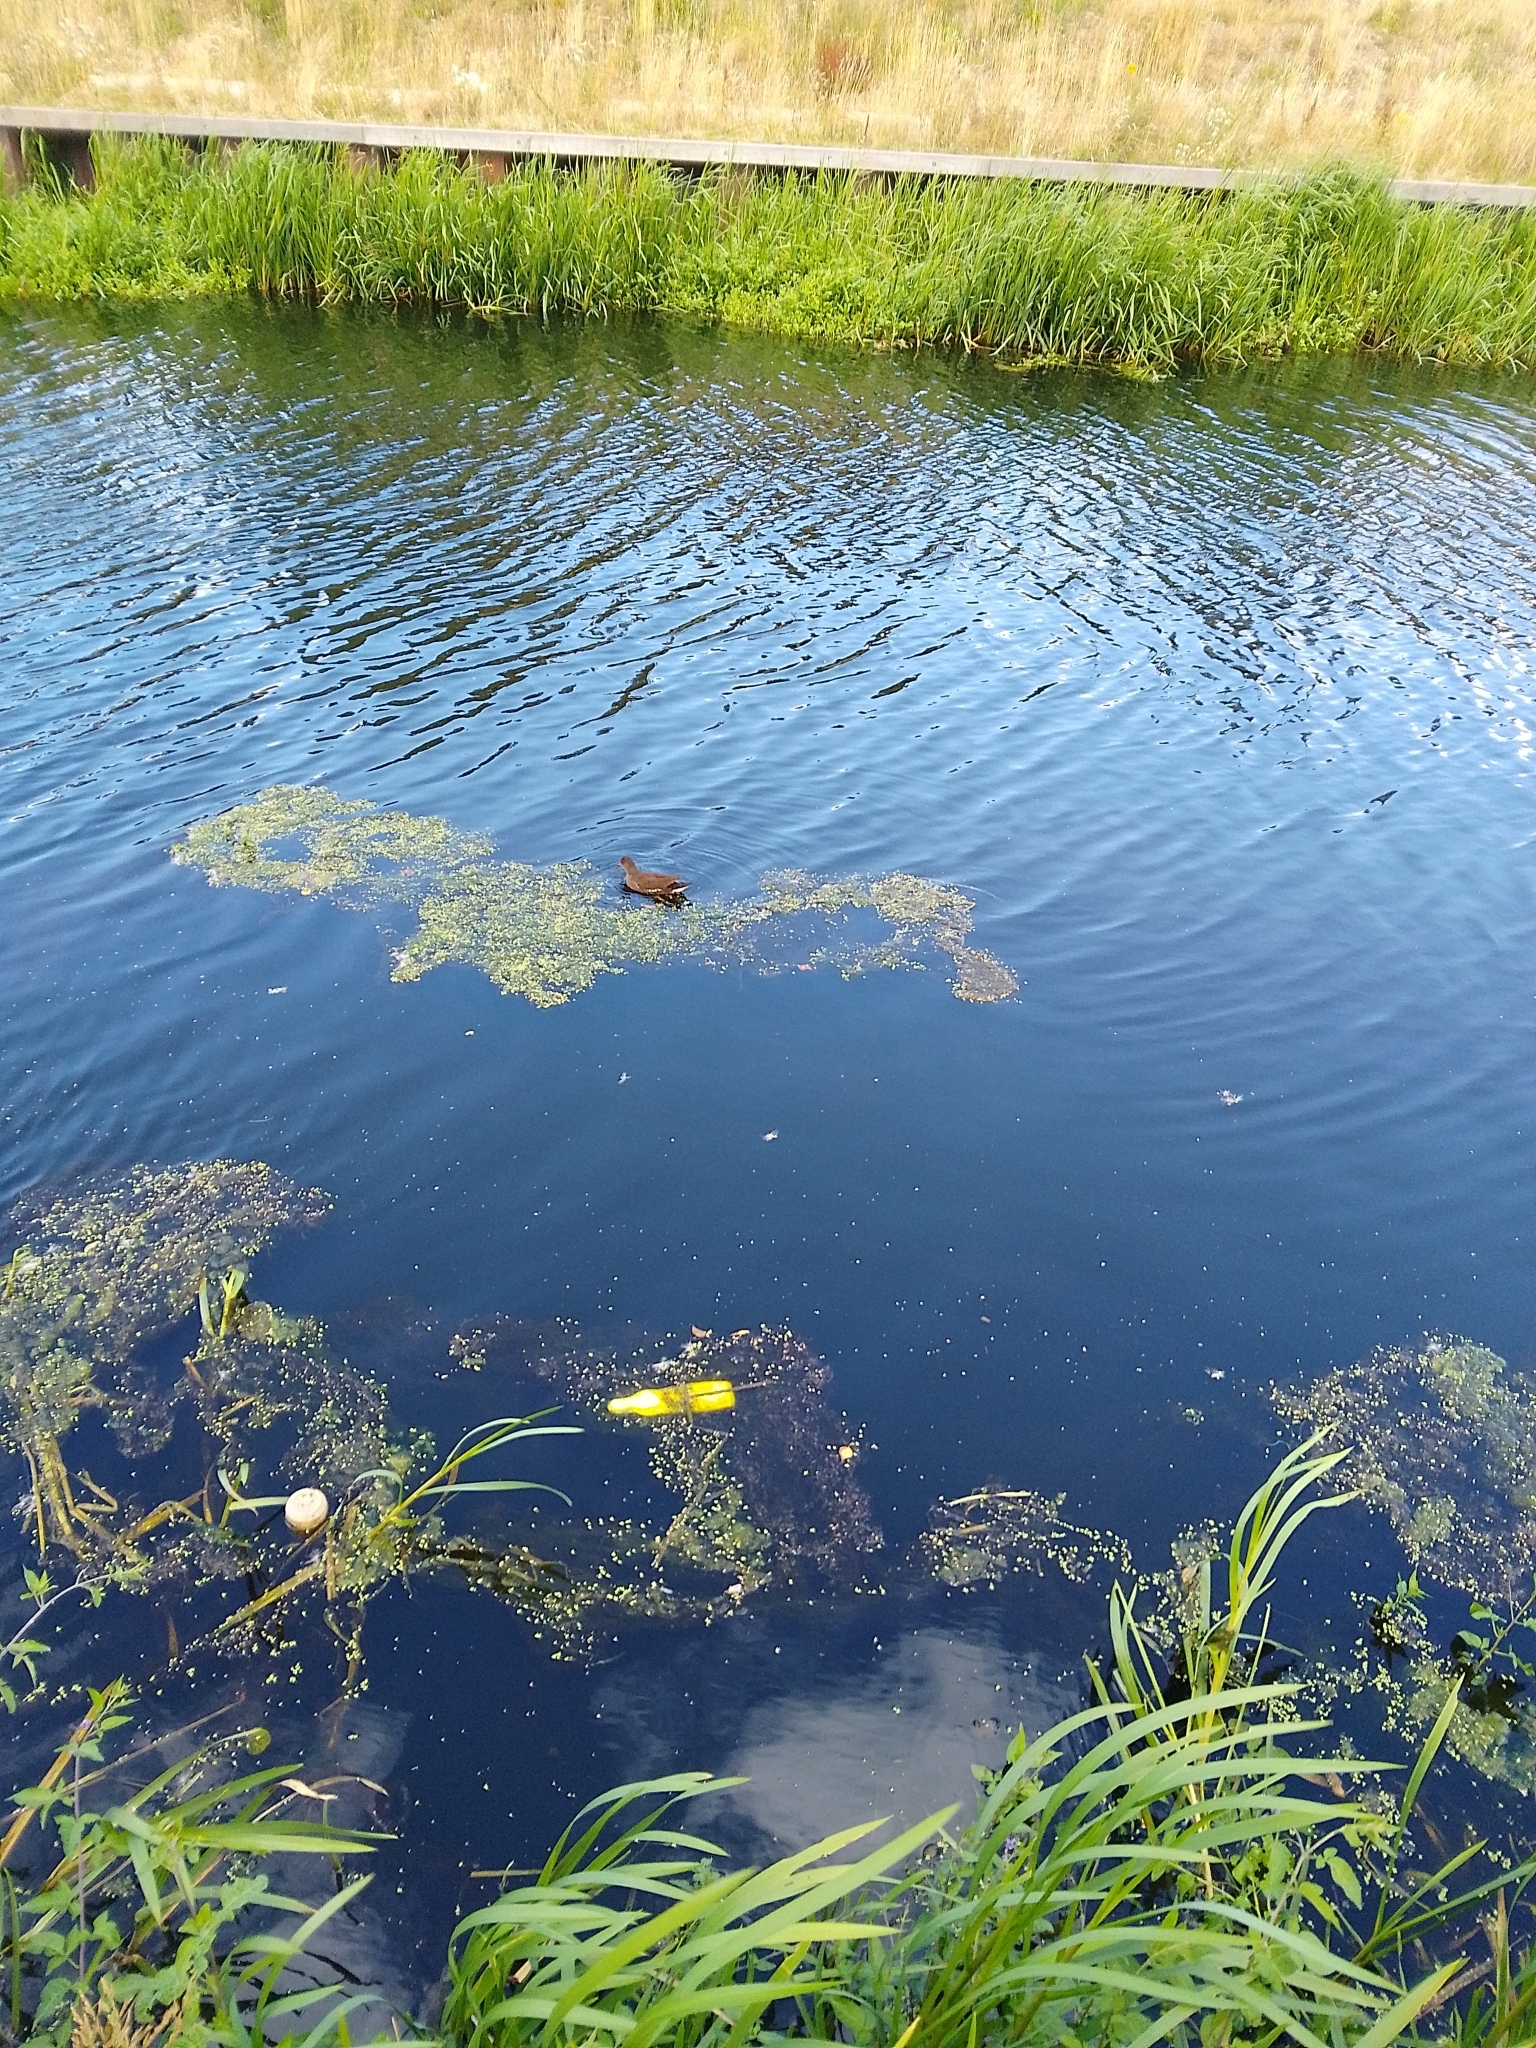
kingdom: Animalia
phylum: Chordata
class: Aves
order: Gruiformes
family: Rallidae
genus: Gallinula
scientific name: Gallinula chloropus
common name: Common moorhen
